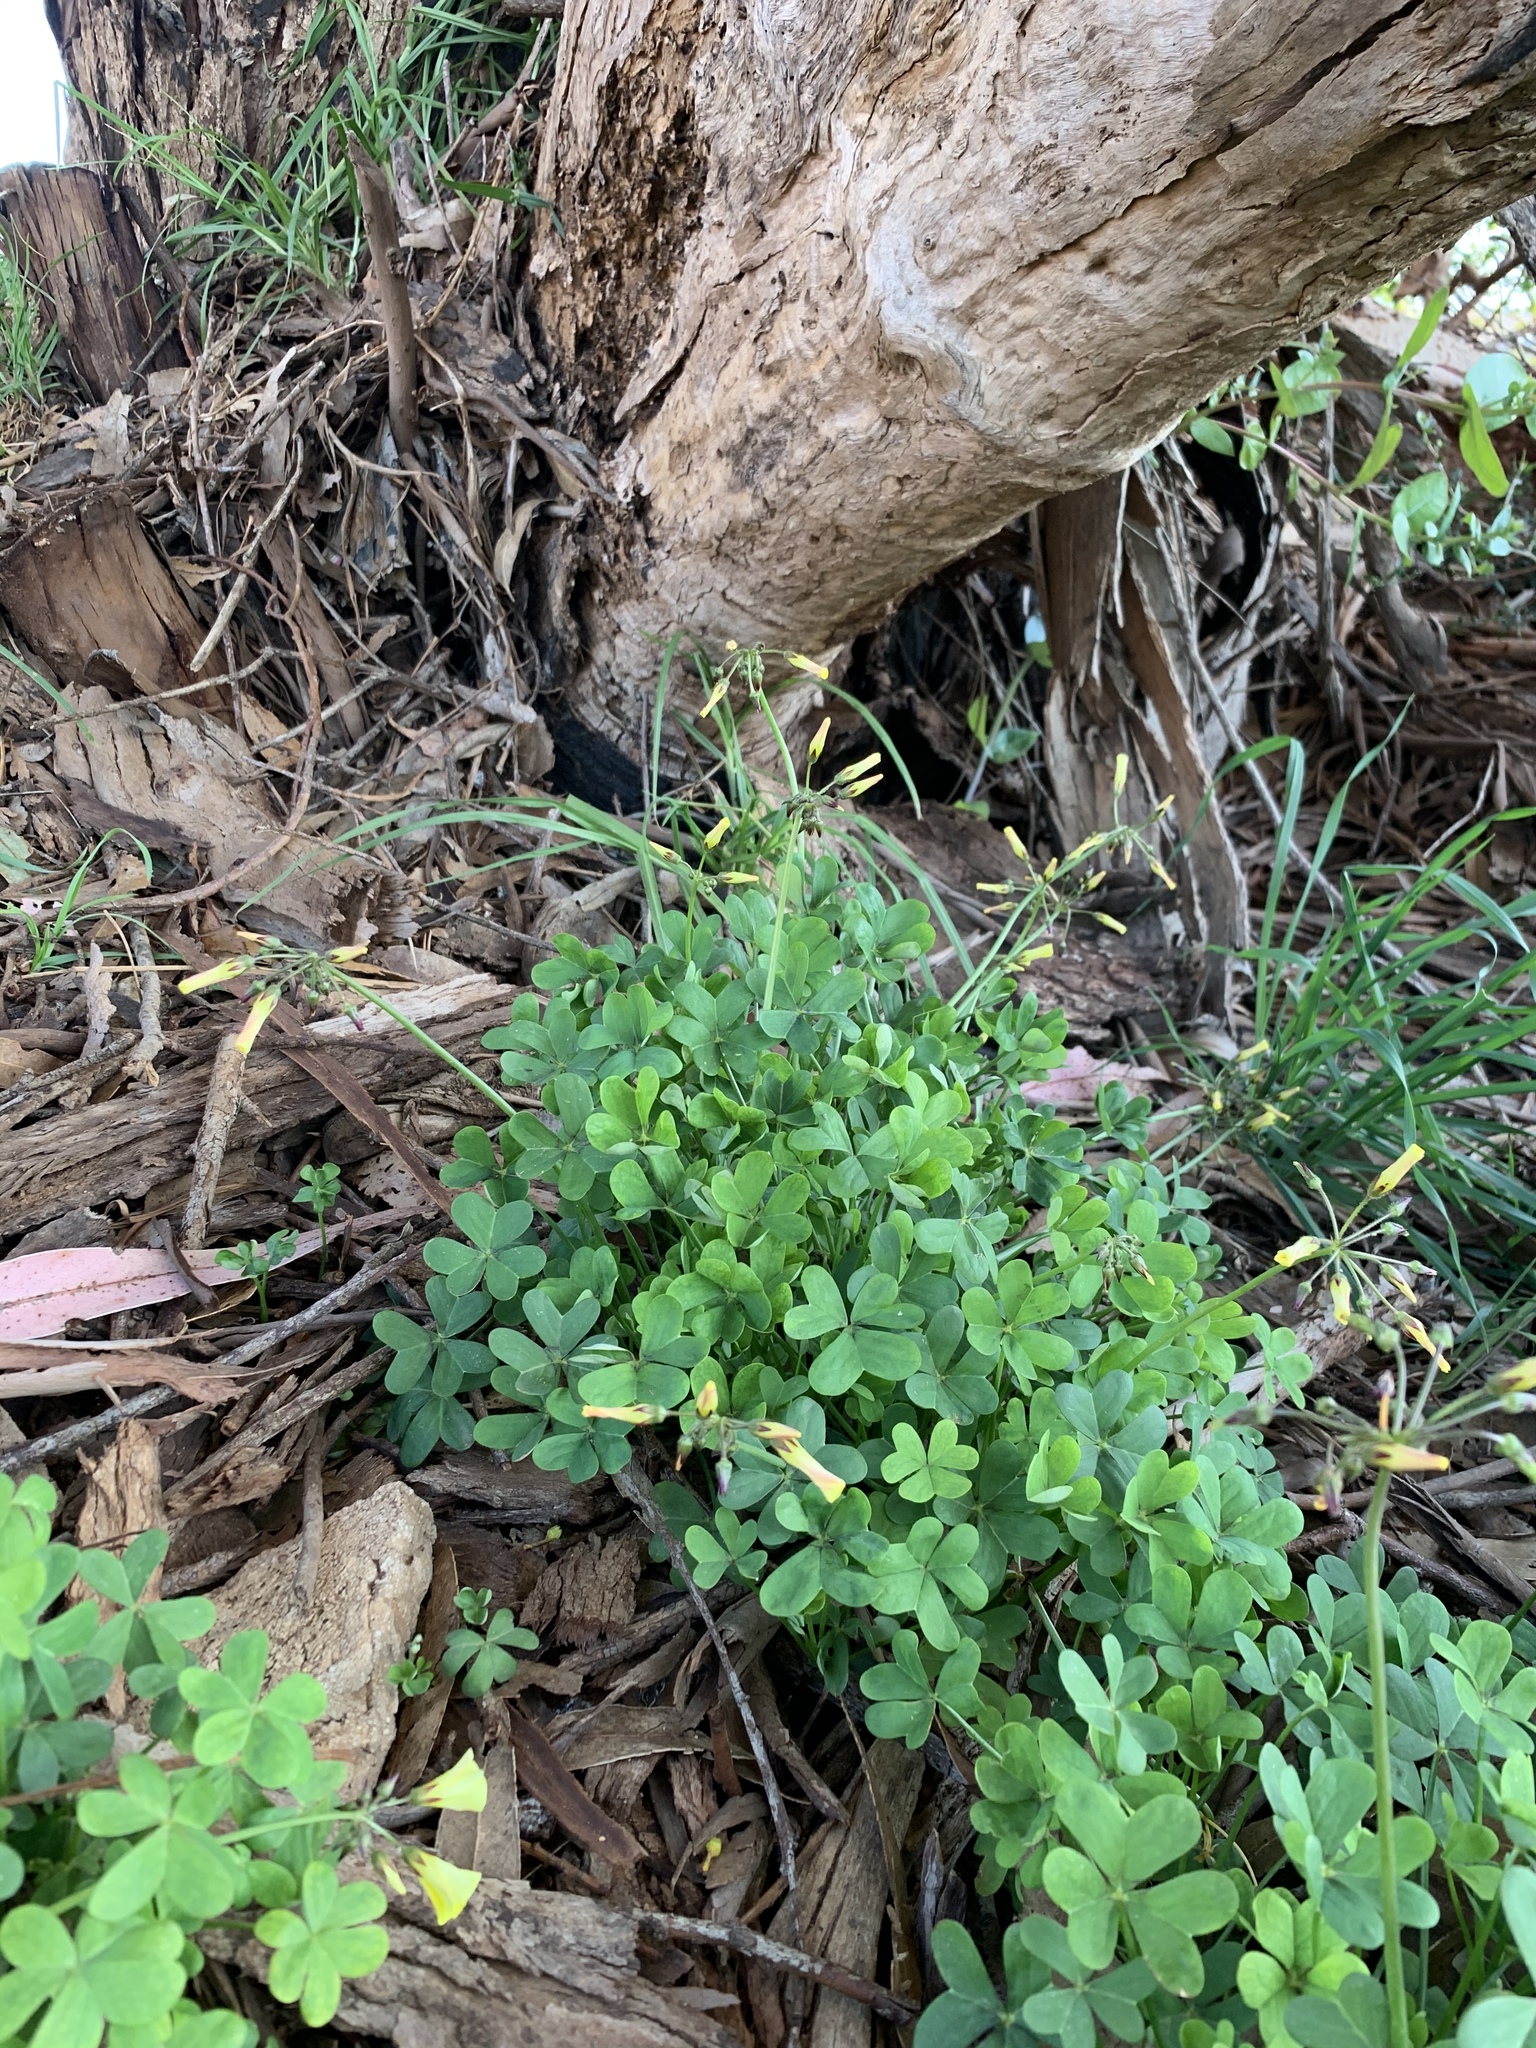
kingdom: Plantae
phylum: Tracheophyta
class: Magnoliopsida
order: Oxalidales
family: Oxalidaceae
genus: Oxalis
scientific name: Oxalis pes-caprae
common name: Bermuda-buttercup
